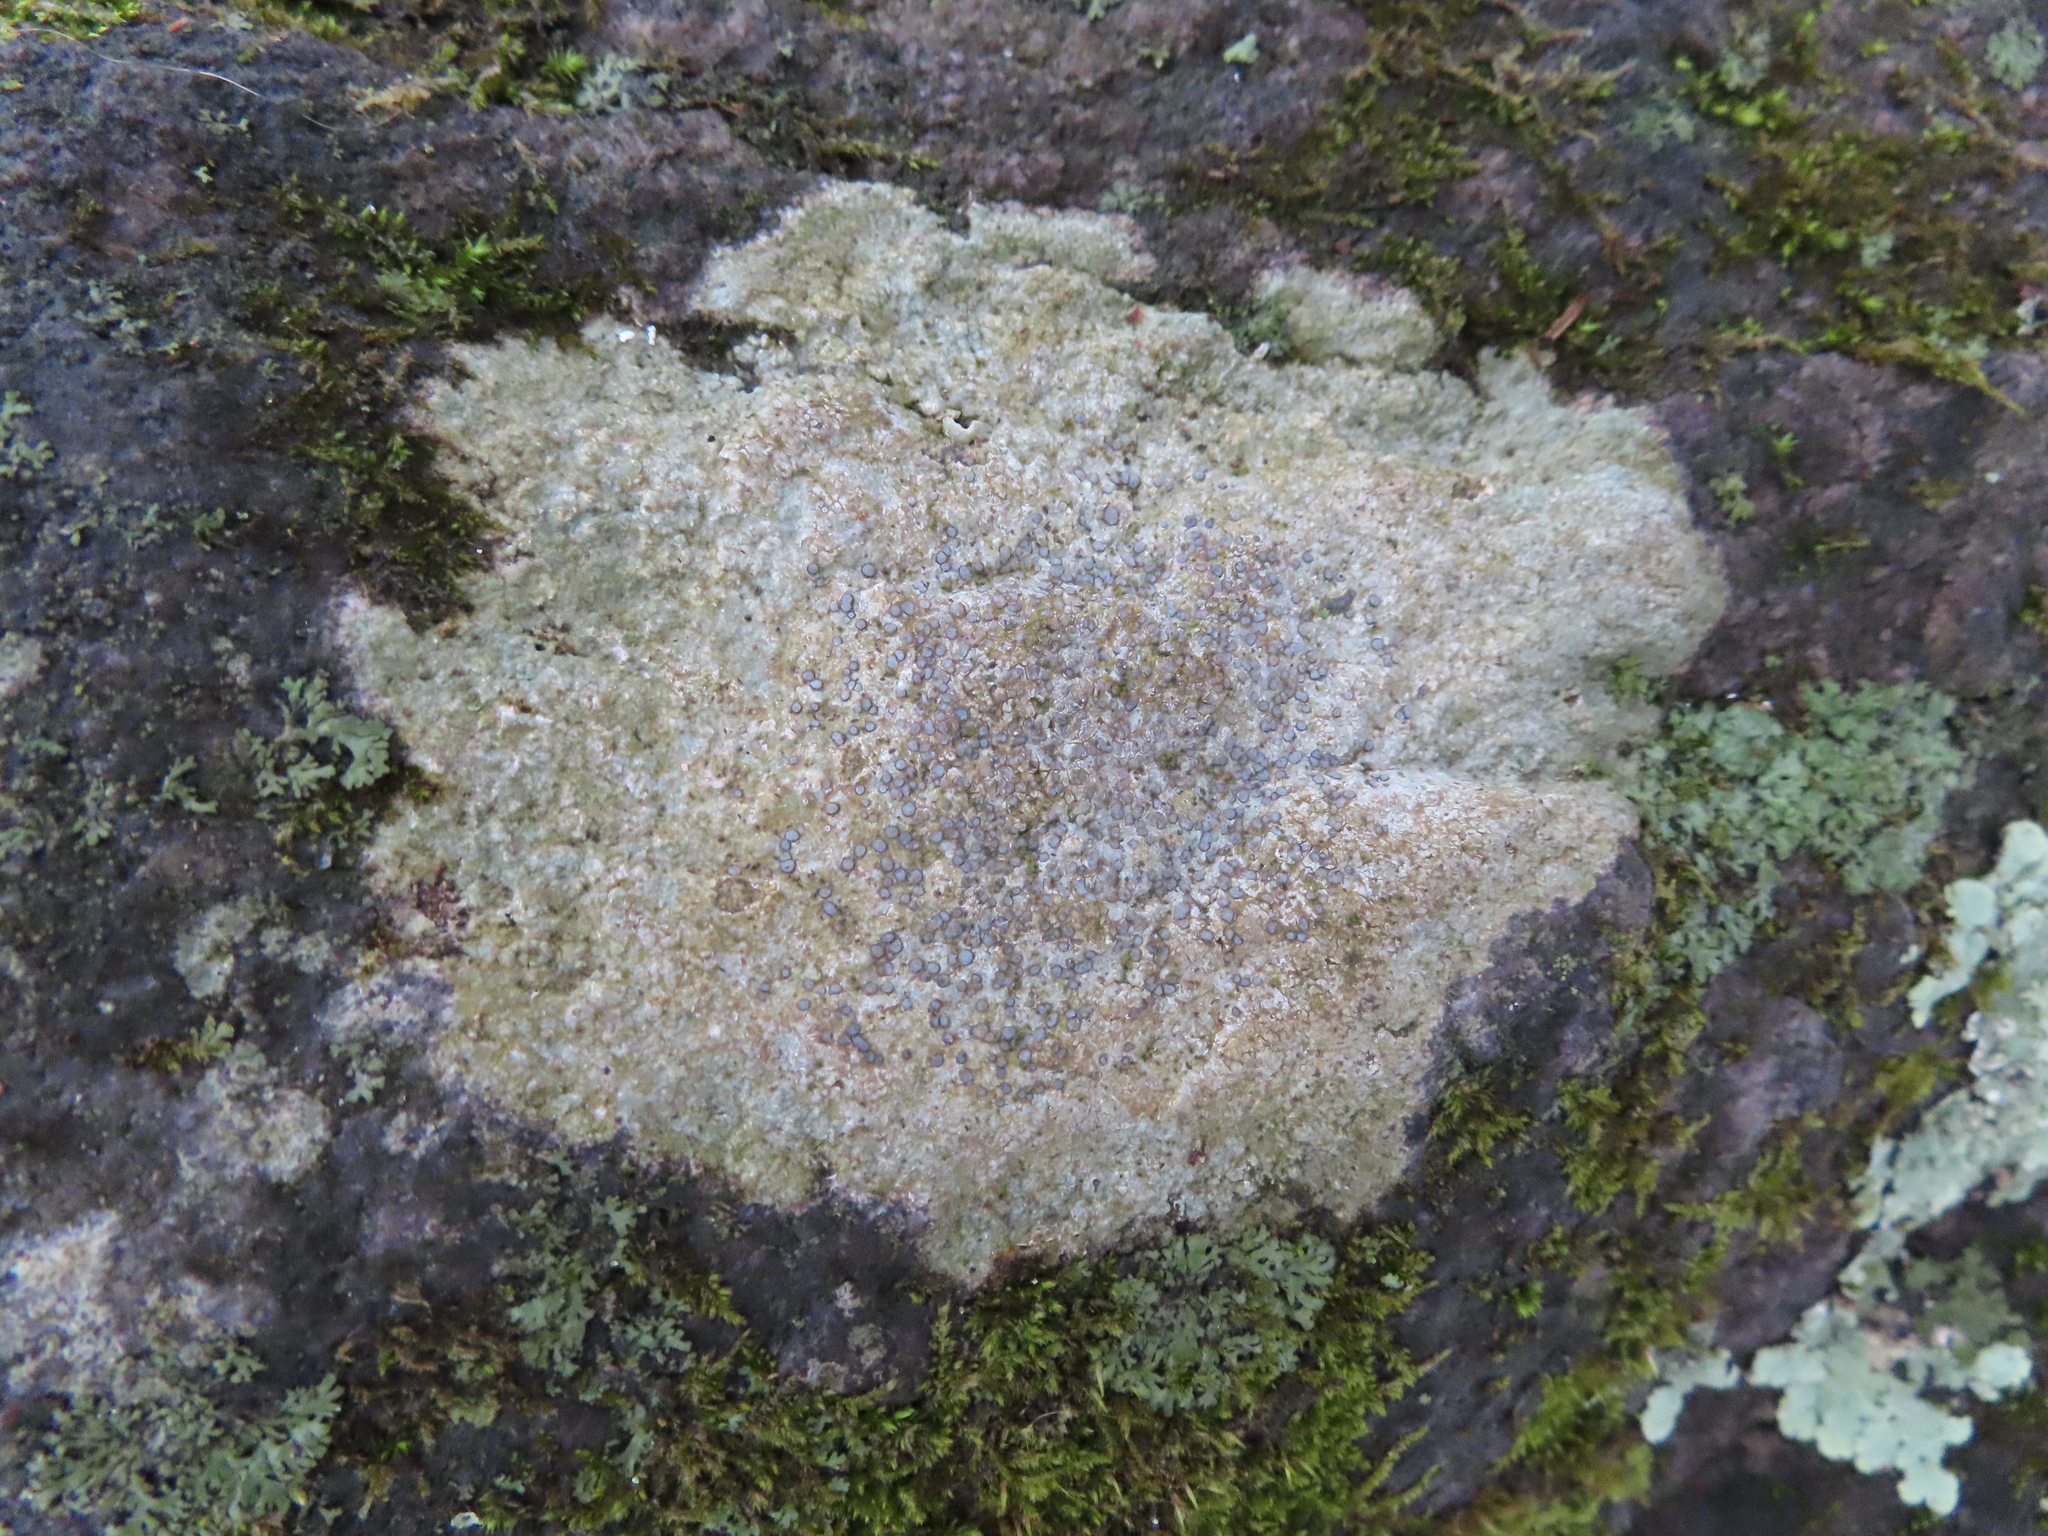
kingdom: Fungi
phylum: Ascomycota
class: Lecanoromycetes
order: Lecideales
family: Lecideaceae
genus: Porpidia
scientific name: Porpidia albocaerulescens
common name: Smokey-eyed boulder lichen
